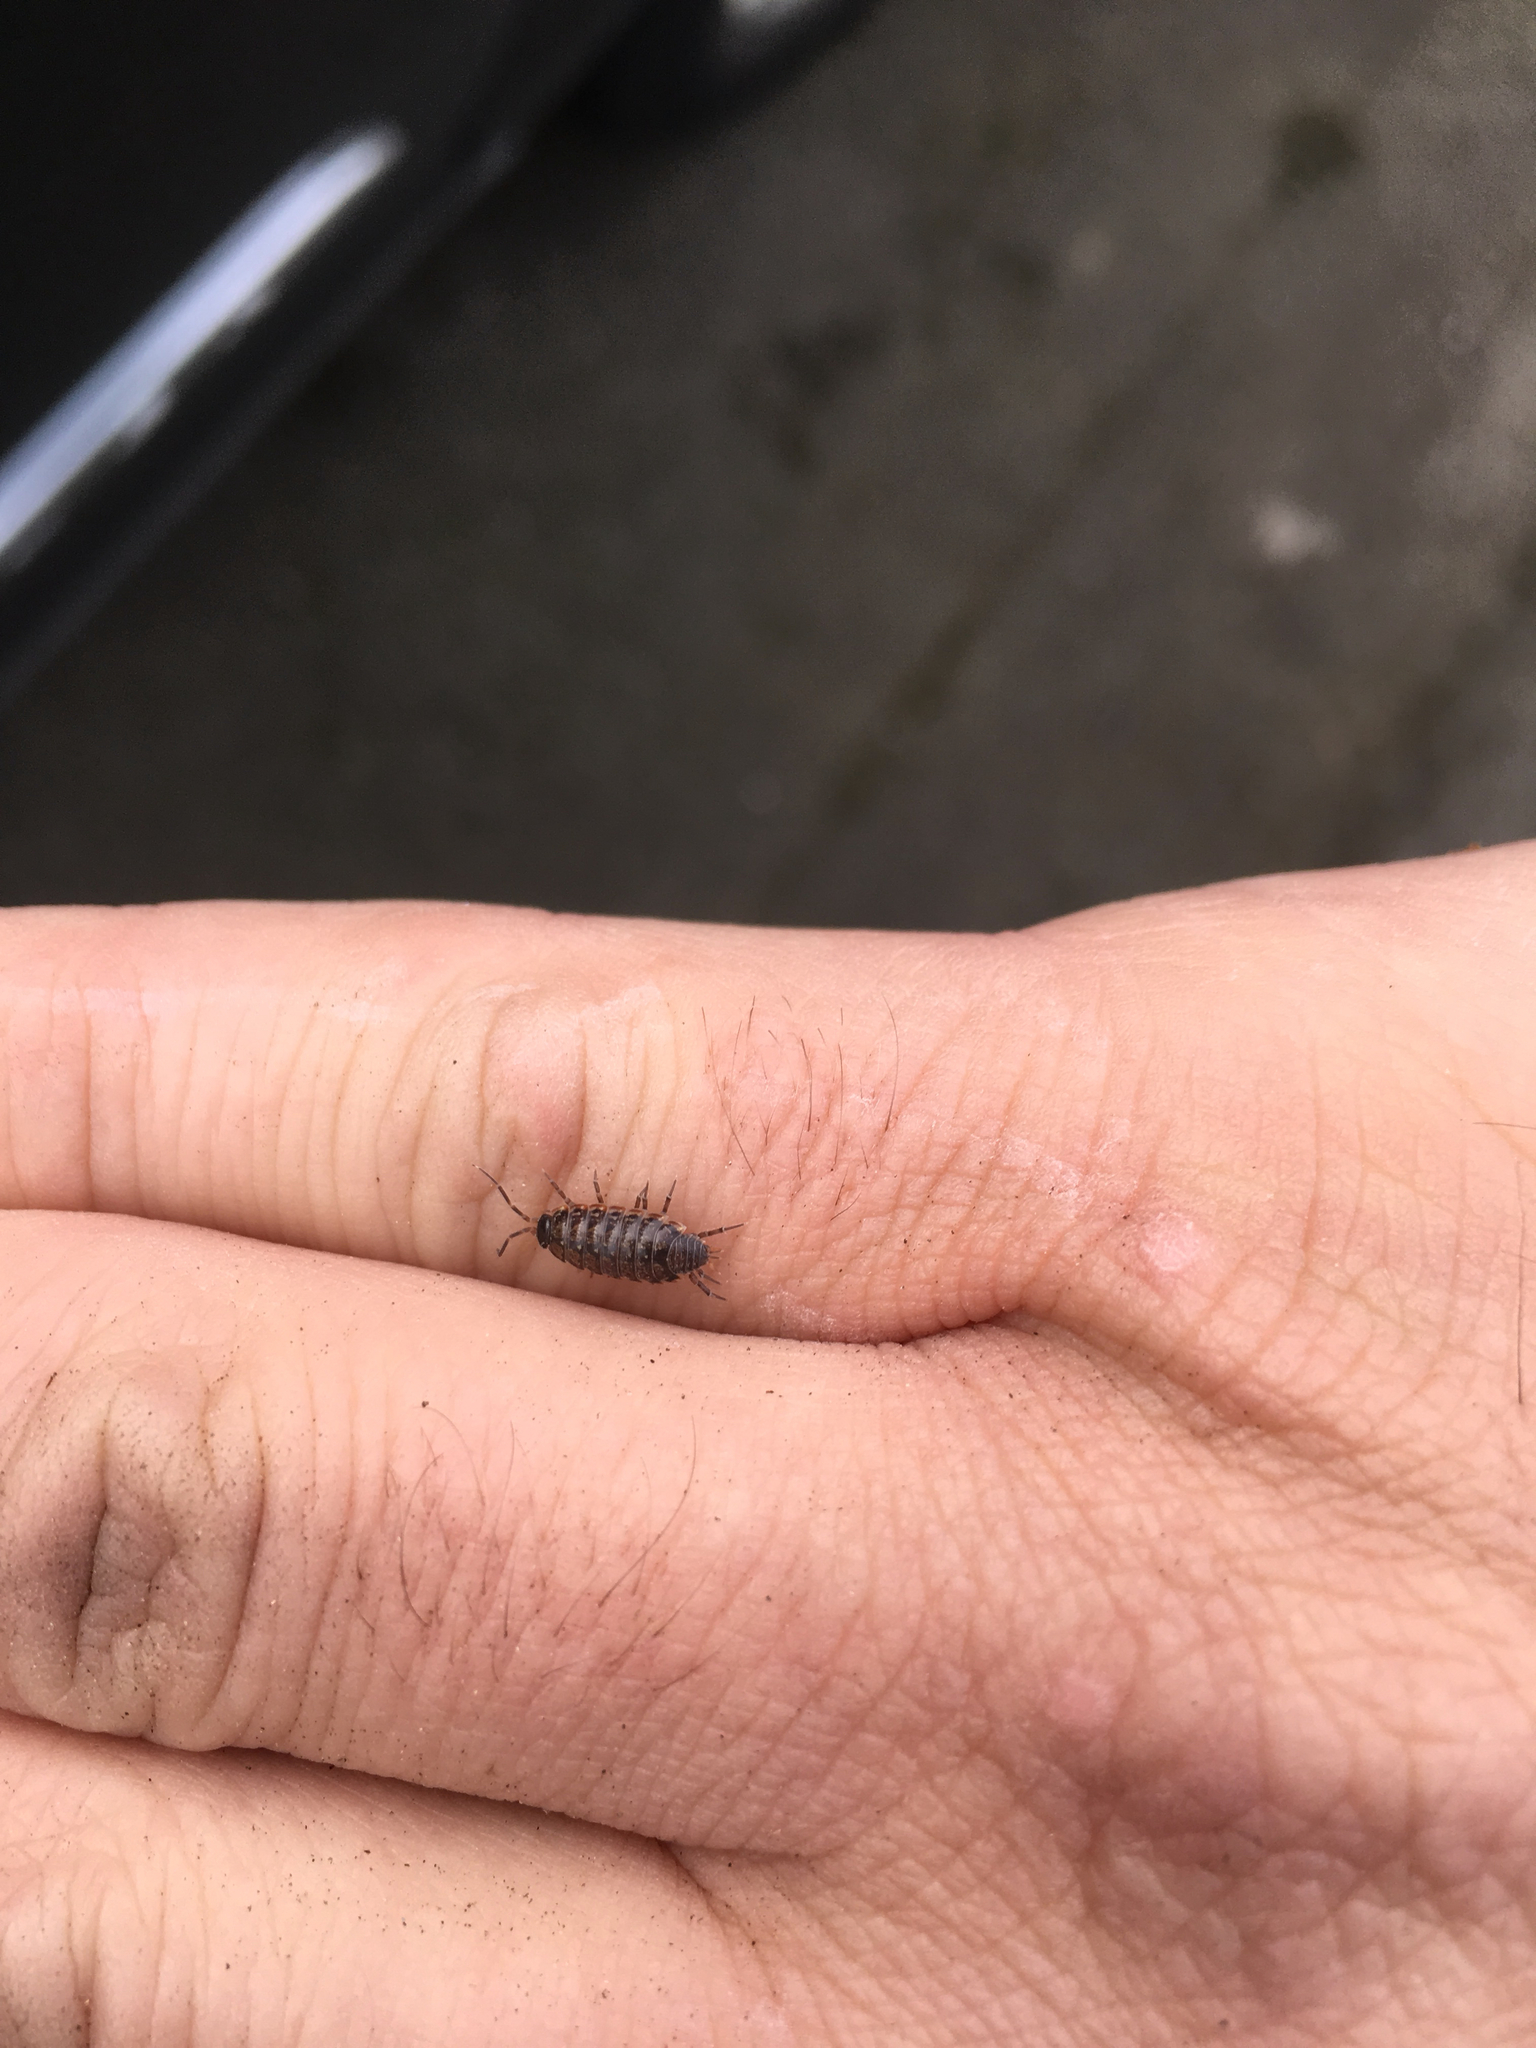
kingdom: Animalia
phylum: Arthropoda
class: Malacostraca
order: Isopoda
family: Philosciidae
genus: Philoscia
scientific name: Philoscia muscorum
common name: Common striped woodlouse
